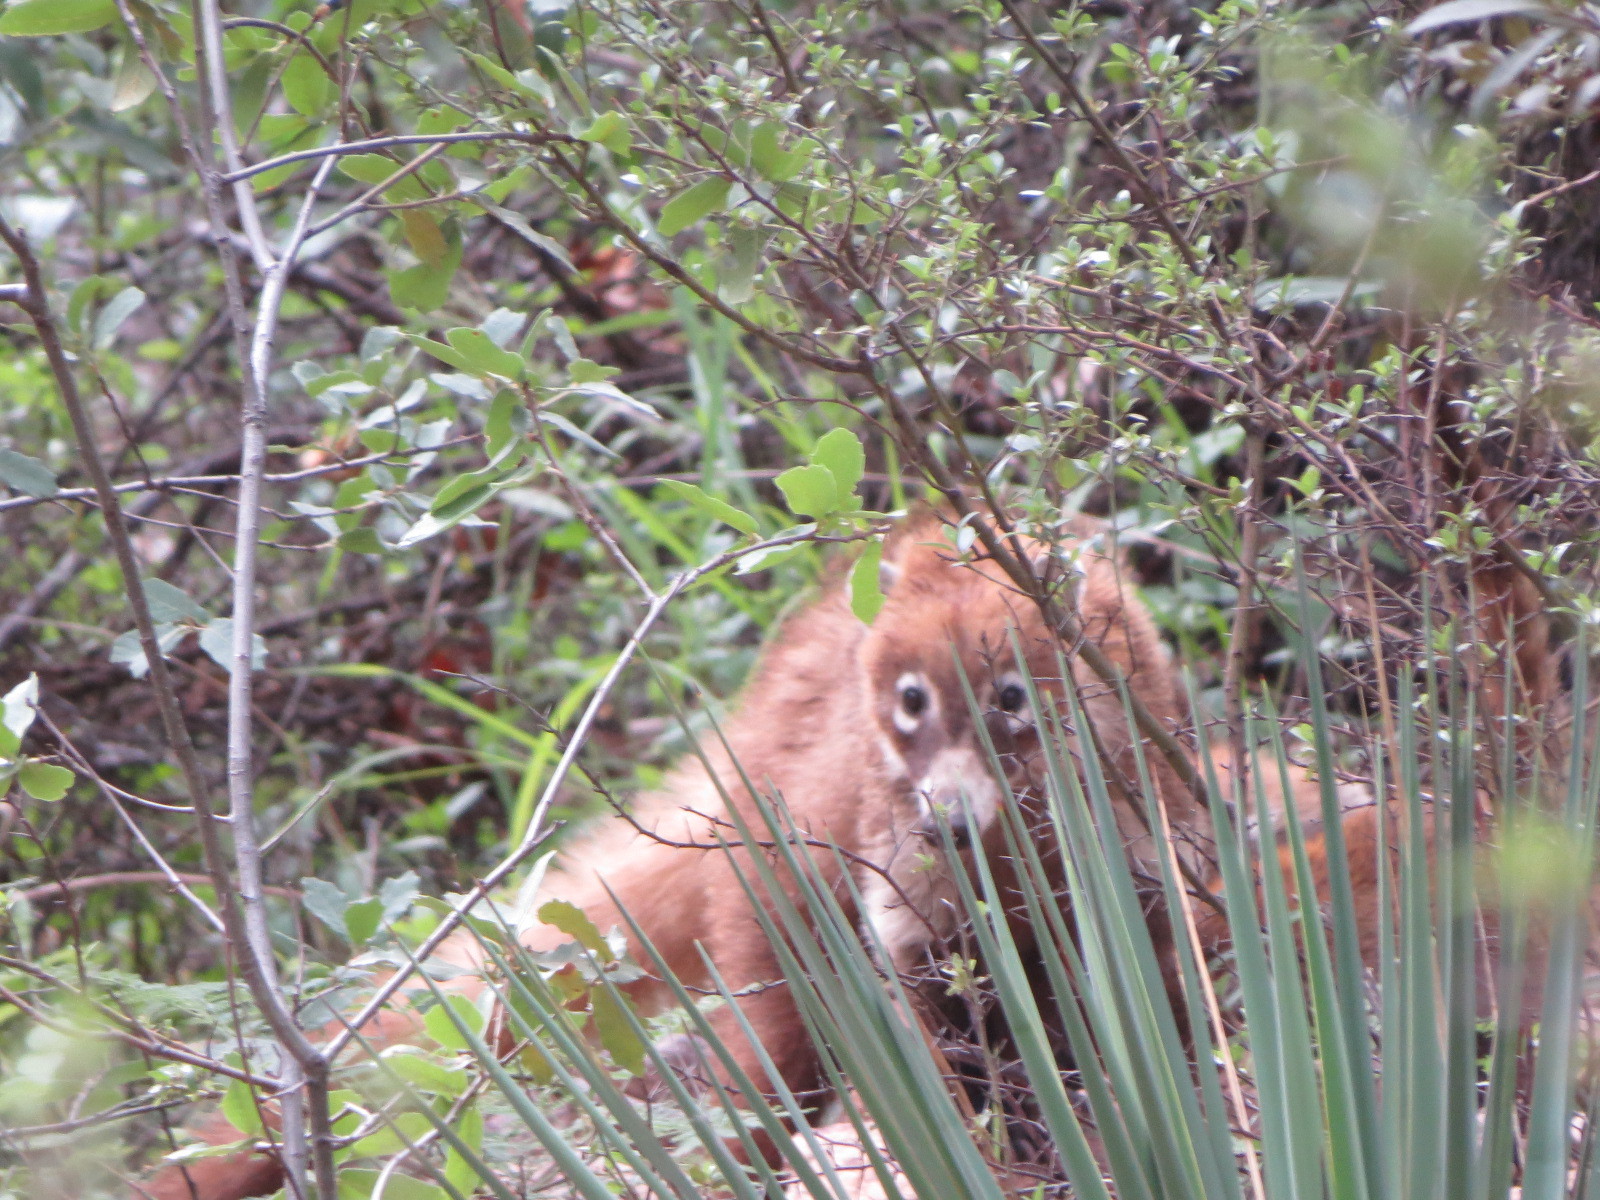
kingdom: Animalia
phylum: Chordata
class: Mammalia
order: Carnivora
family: Procyonidae
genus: Nasua
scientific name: Nasua narica
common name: White-nosed coati
